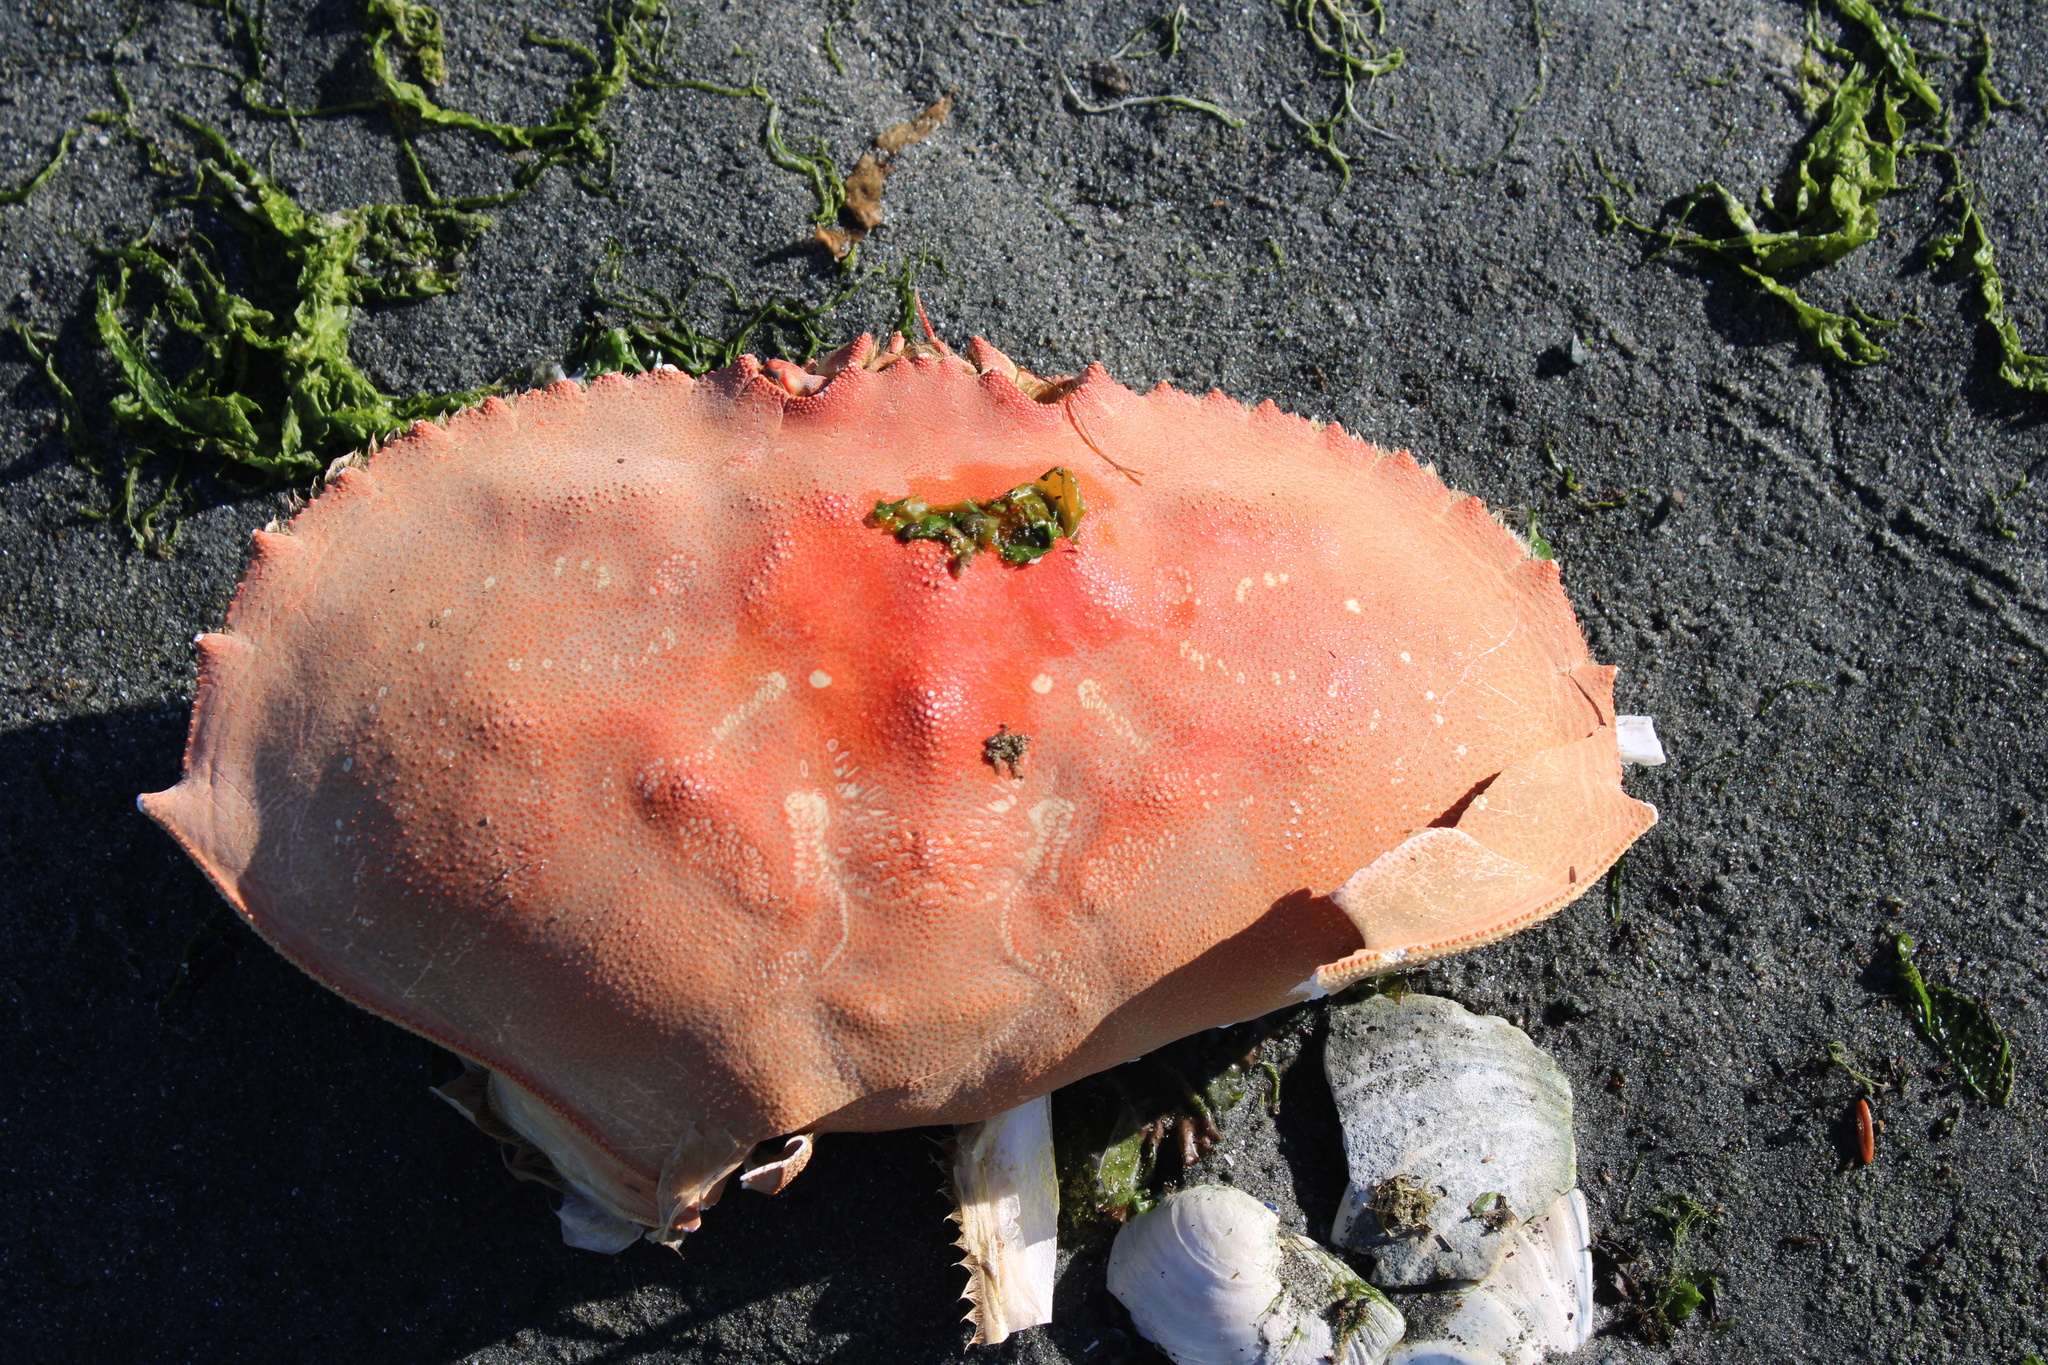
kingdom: Animalia
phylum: Arthropoda
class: Malacostraca
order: Decapoda
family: Cancridae
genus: Metacarcinus
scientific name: Metacarcinus magister
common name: Californian crab
